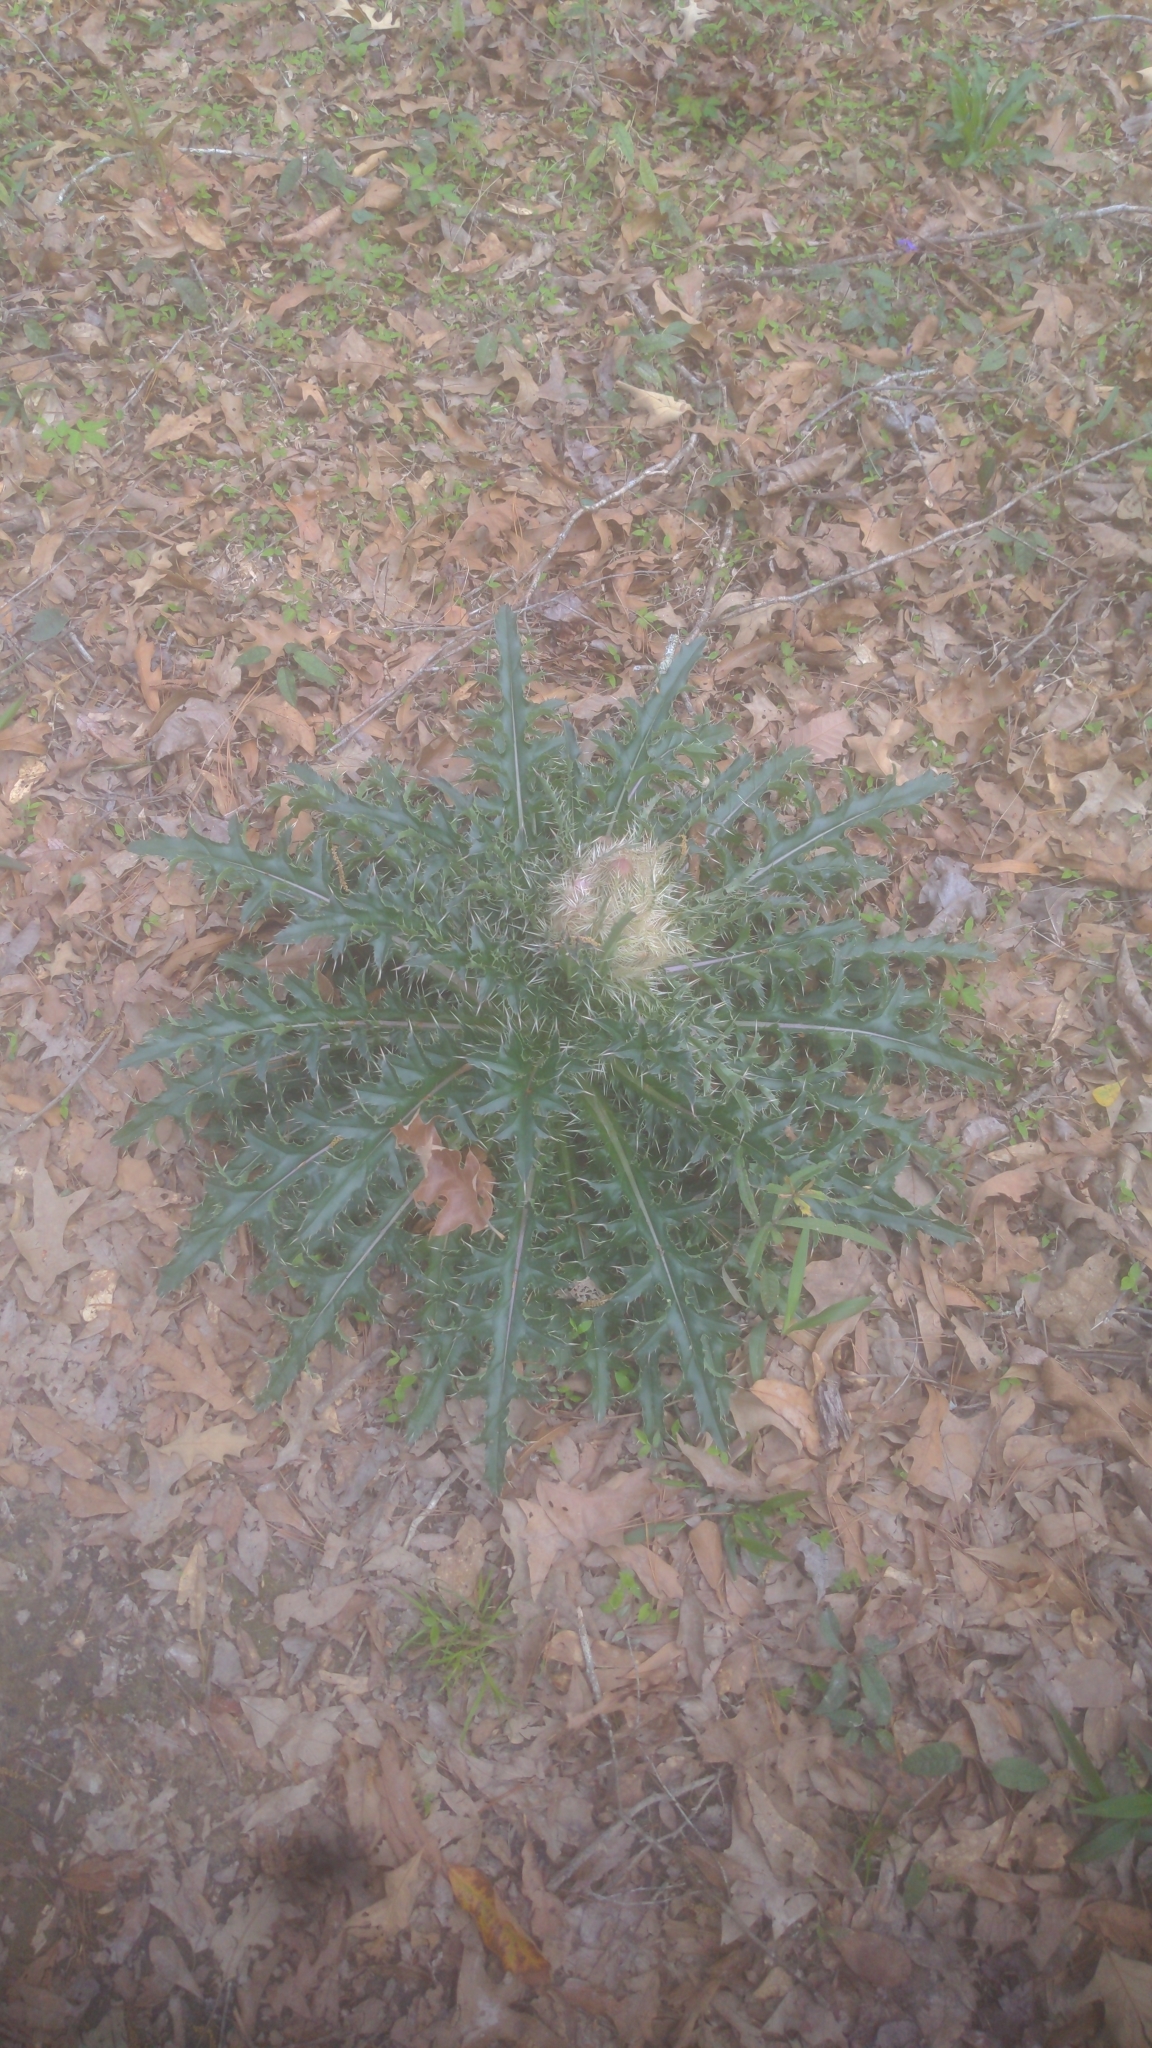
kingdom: Plantae
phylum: Tracheophyta
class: Magnoliopsida
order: Asterales
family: Asteraceae
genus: Cirsium
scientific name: Cirsium horridulum
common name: Bristly thistle
